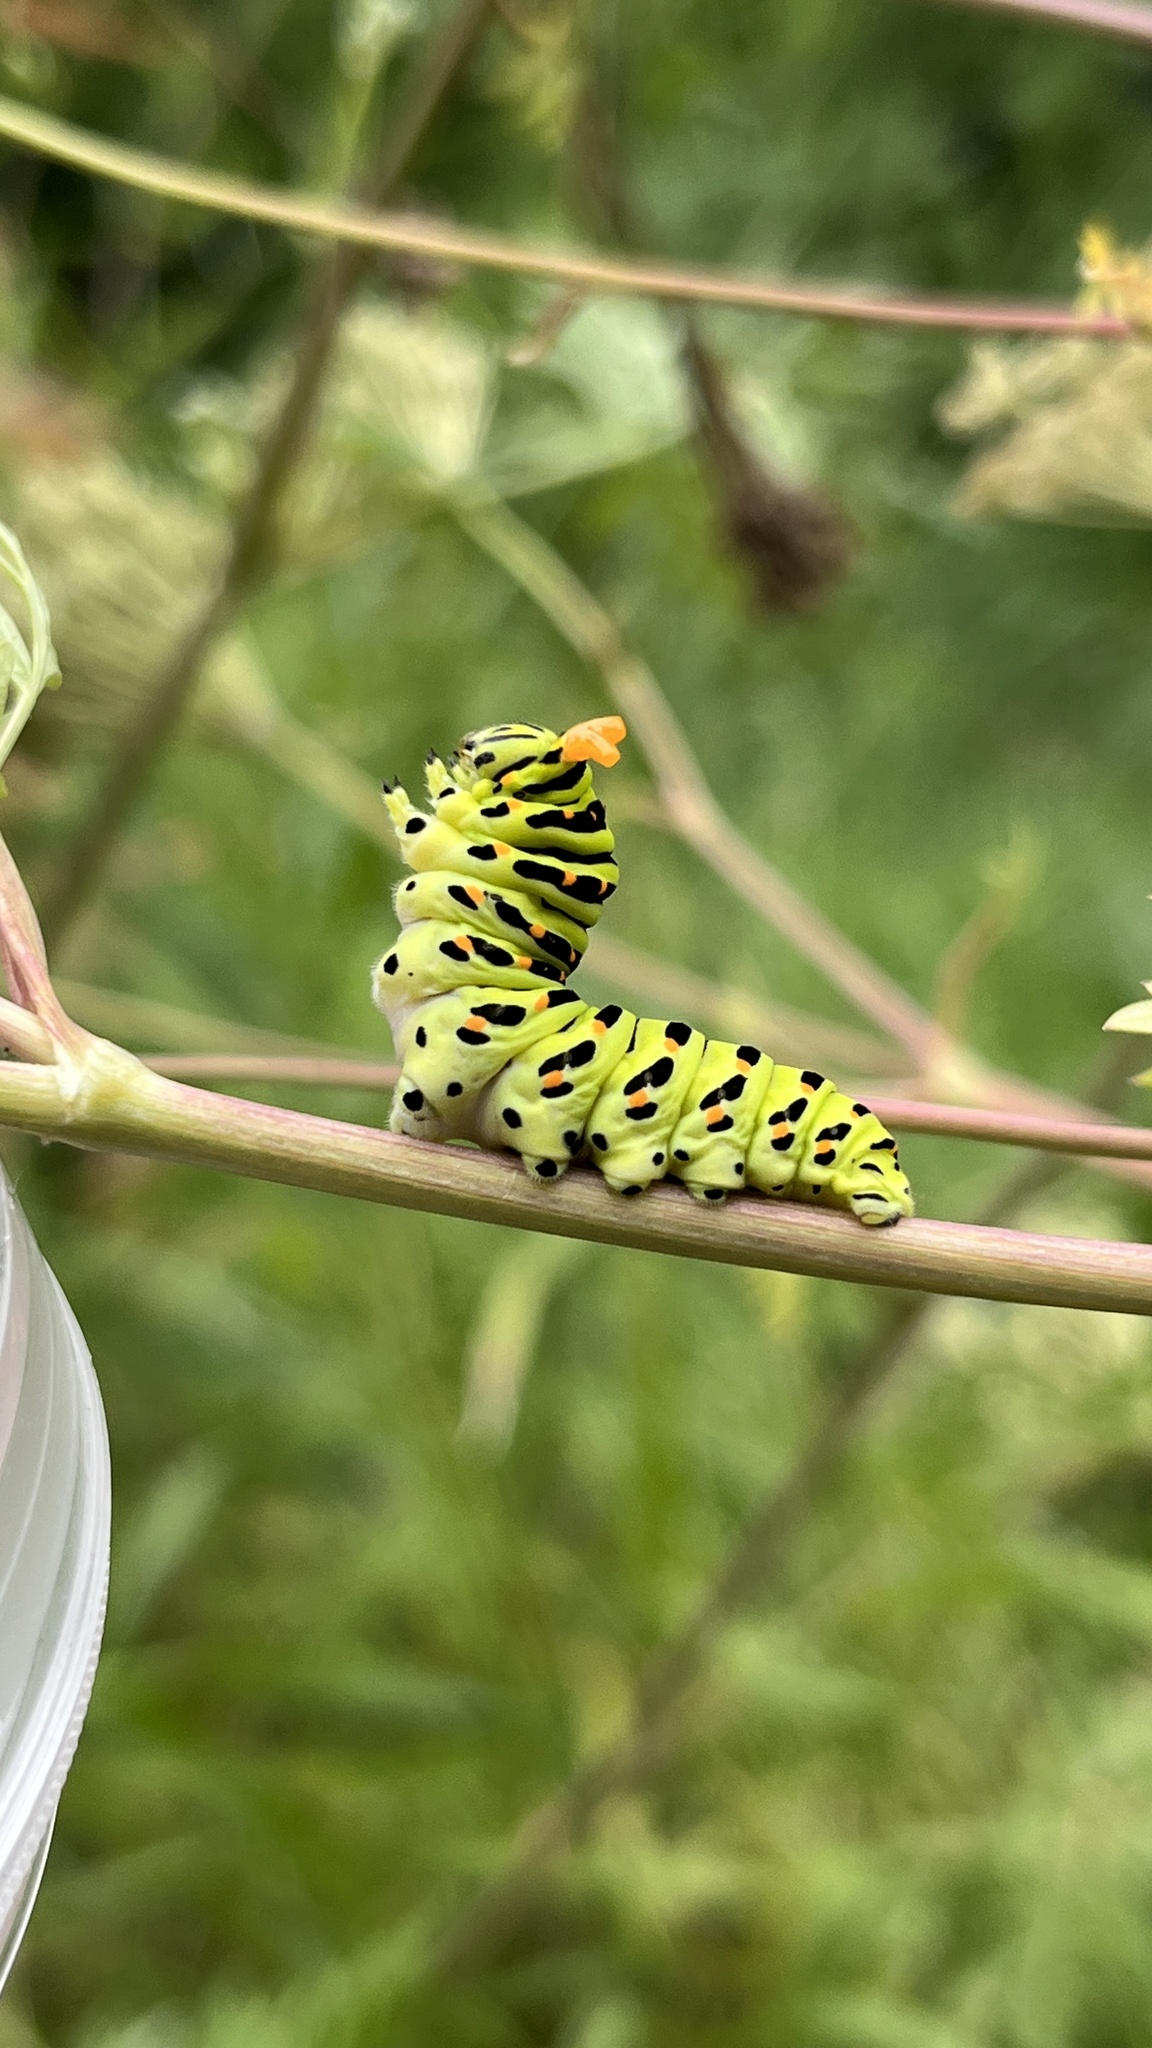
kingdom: Animalia
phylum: Arthropoda
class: Insecta
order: Lepidoptera
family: Papilionidae
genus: Papilio
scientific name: Papilio machaon
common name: Swallowtail
